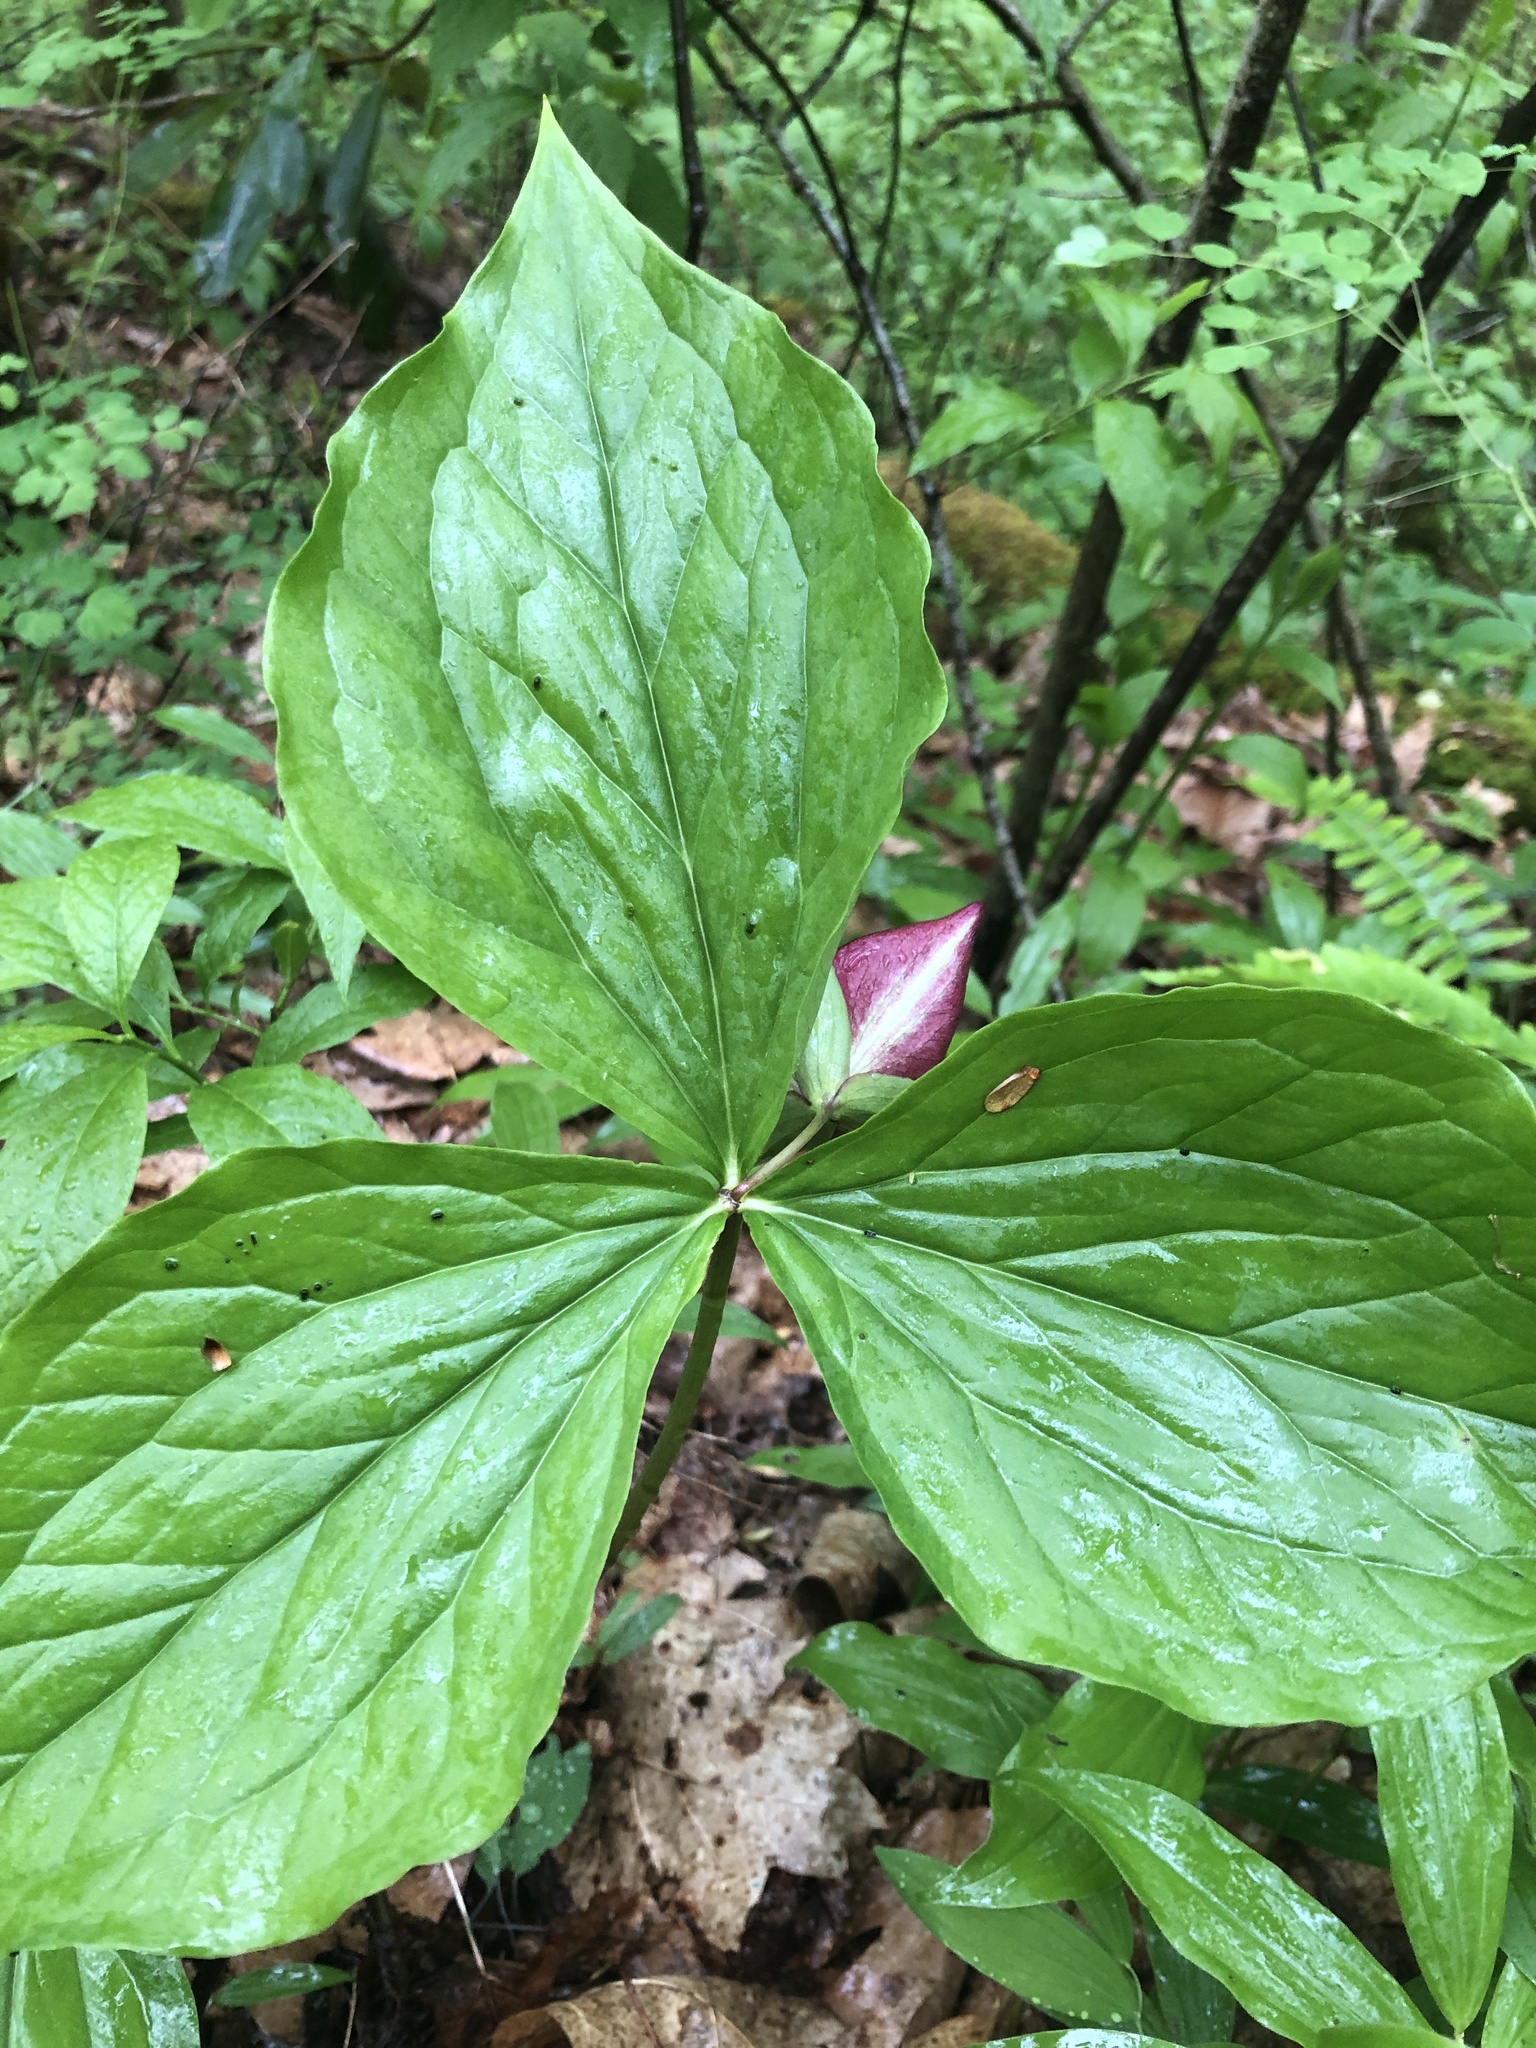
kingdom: Plantae
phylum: Tracheophyta
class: Liliopsida
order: Liliales
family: Melanthiaceae
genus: Trillium
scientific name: Trillium vaseyi
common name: Sweet trillium
